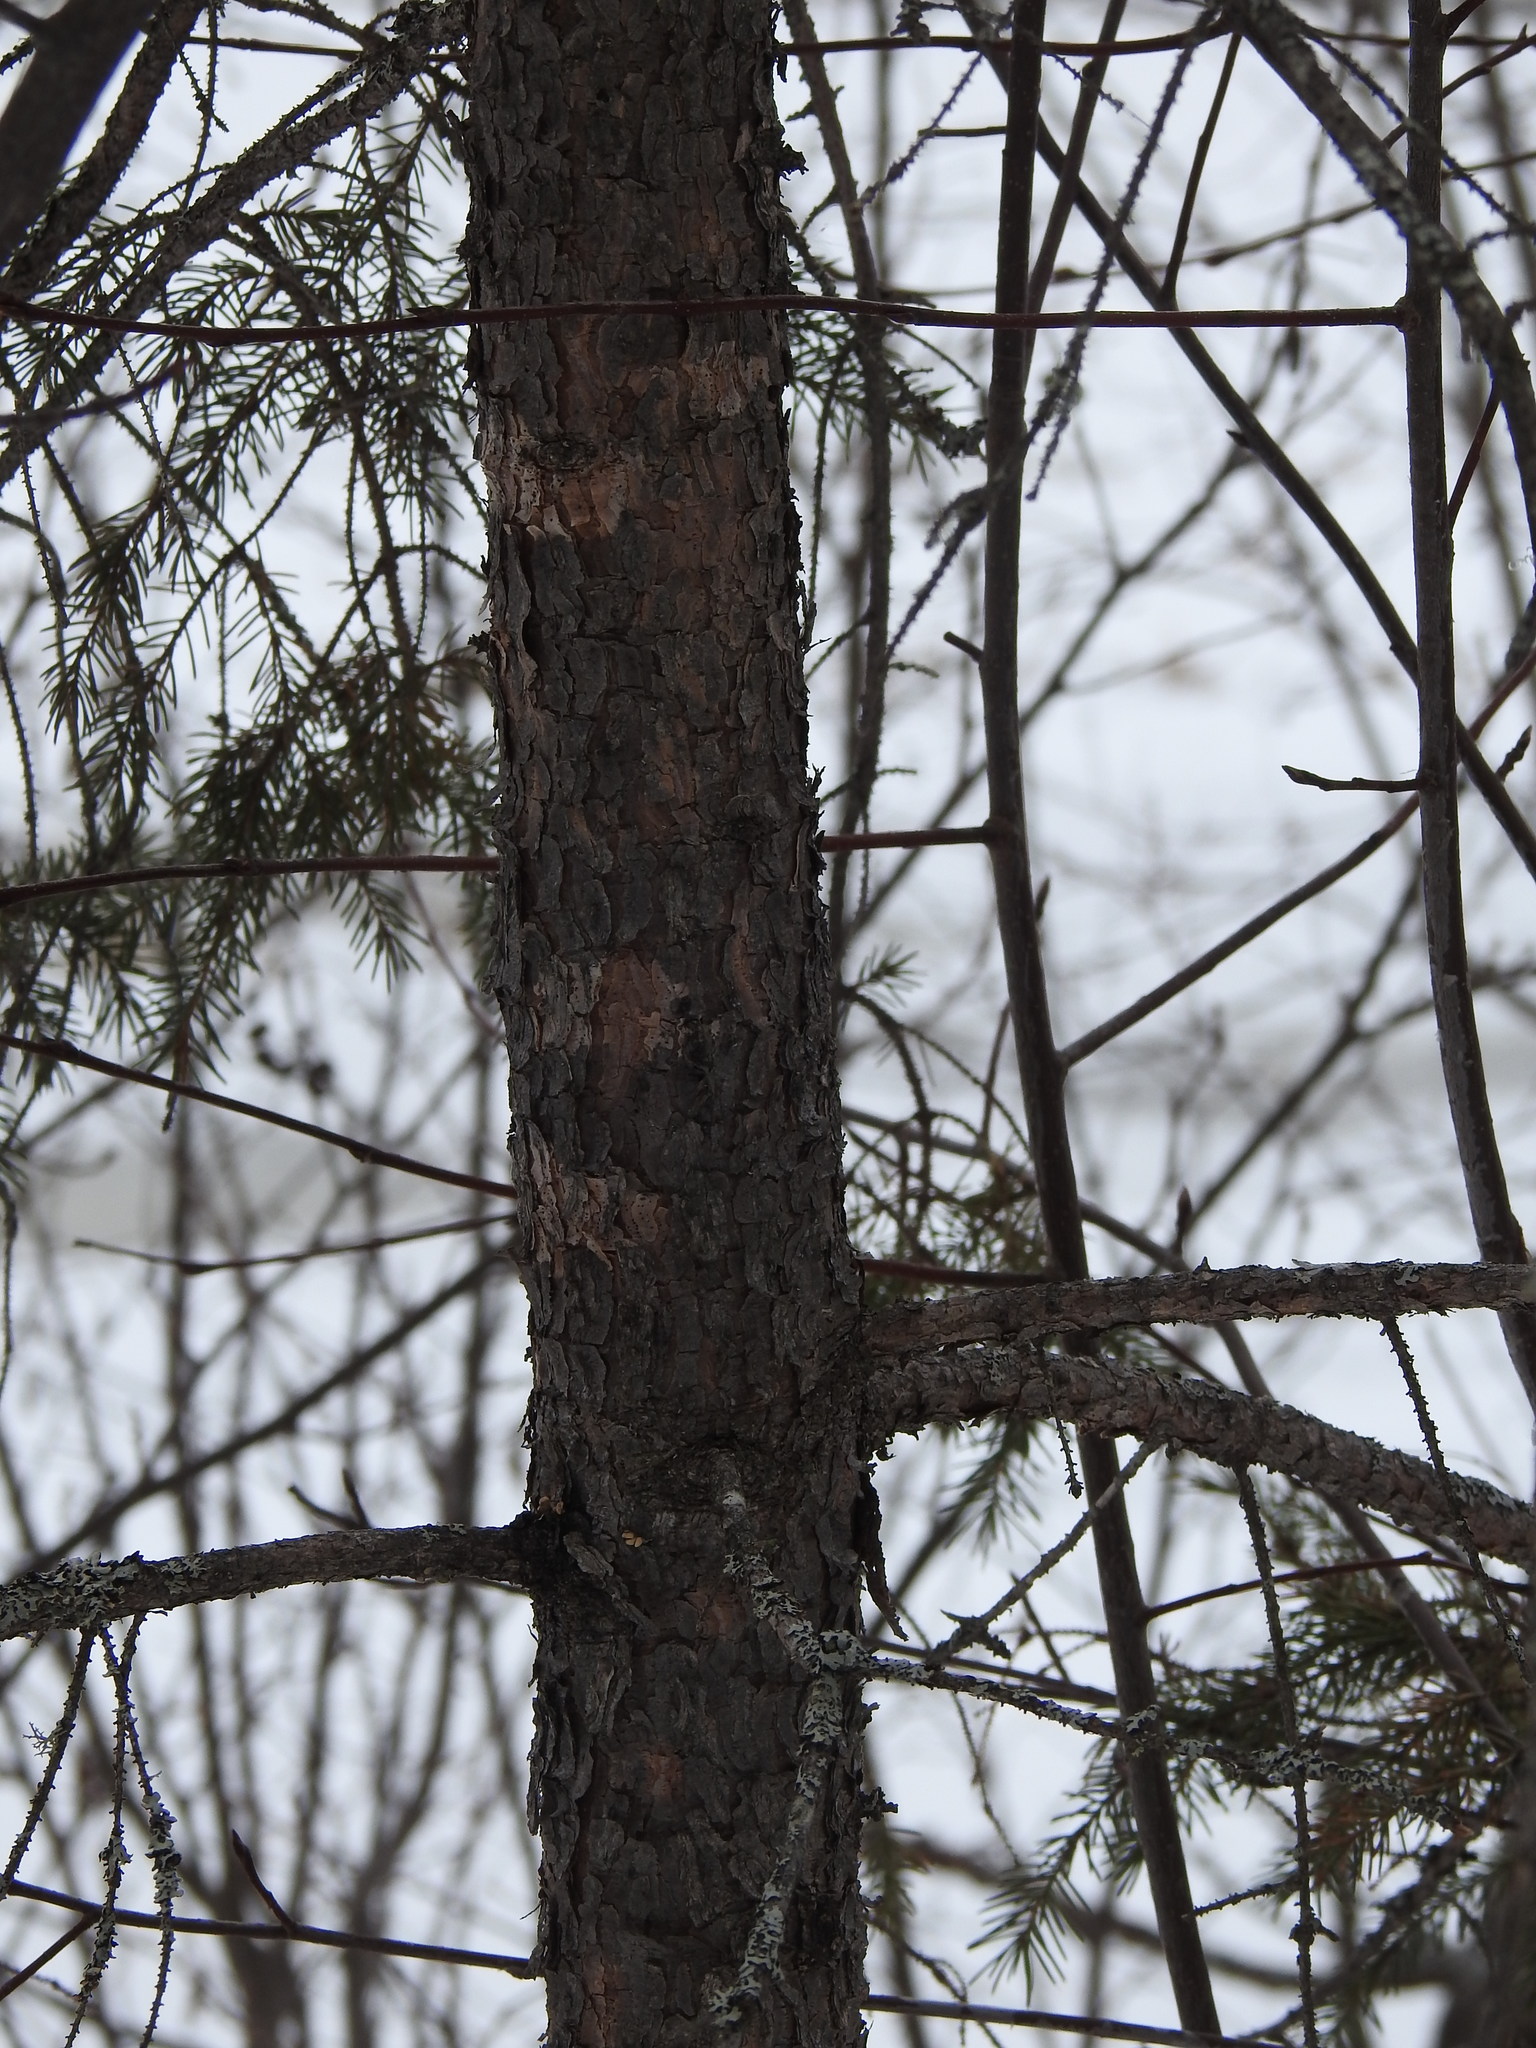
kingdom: Plantae
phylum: Tracheophyta
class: Pinopsida
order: Pinales
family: Pinaceae
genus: Picea
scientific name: Picea mariana
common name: Black spruce
